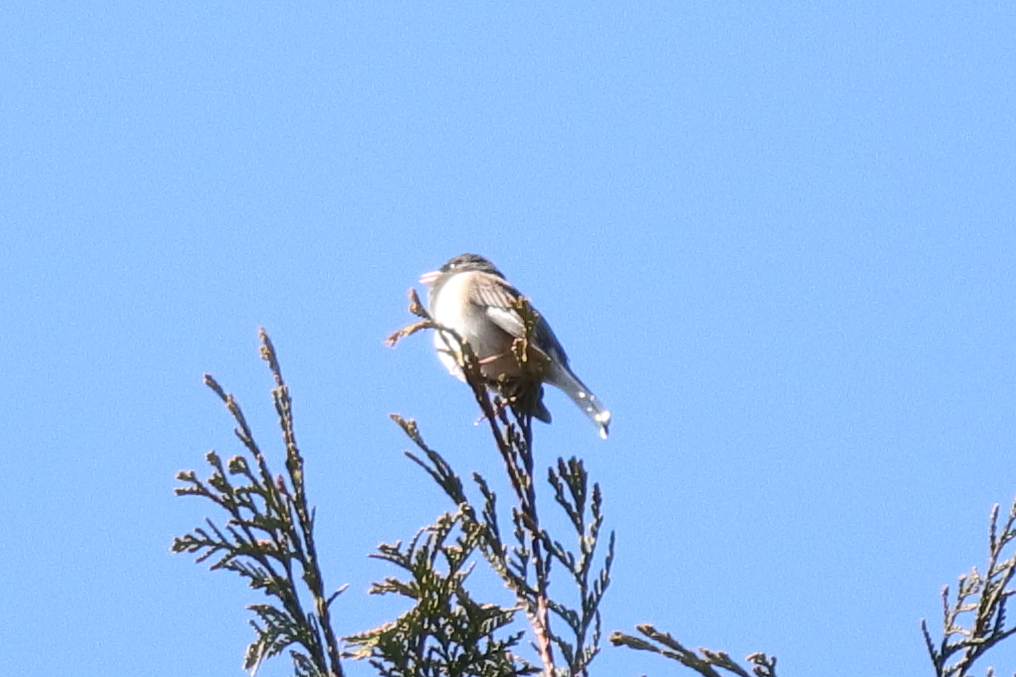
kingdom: Animalia
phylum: Chordata
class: Aves
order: Passeriformes
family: Passerellidae
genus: Junco
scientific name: Junco hyemalis
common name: Dark-eyed junco
